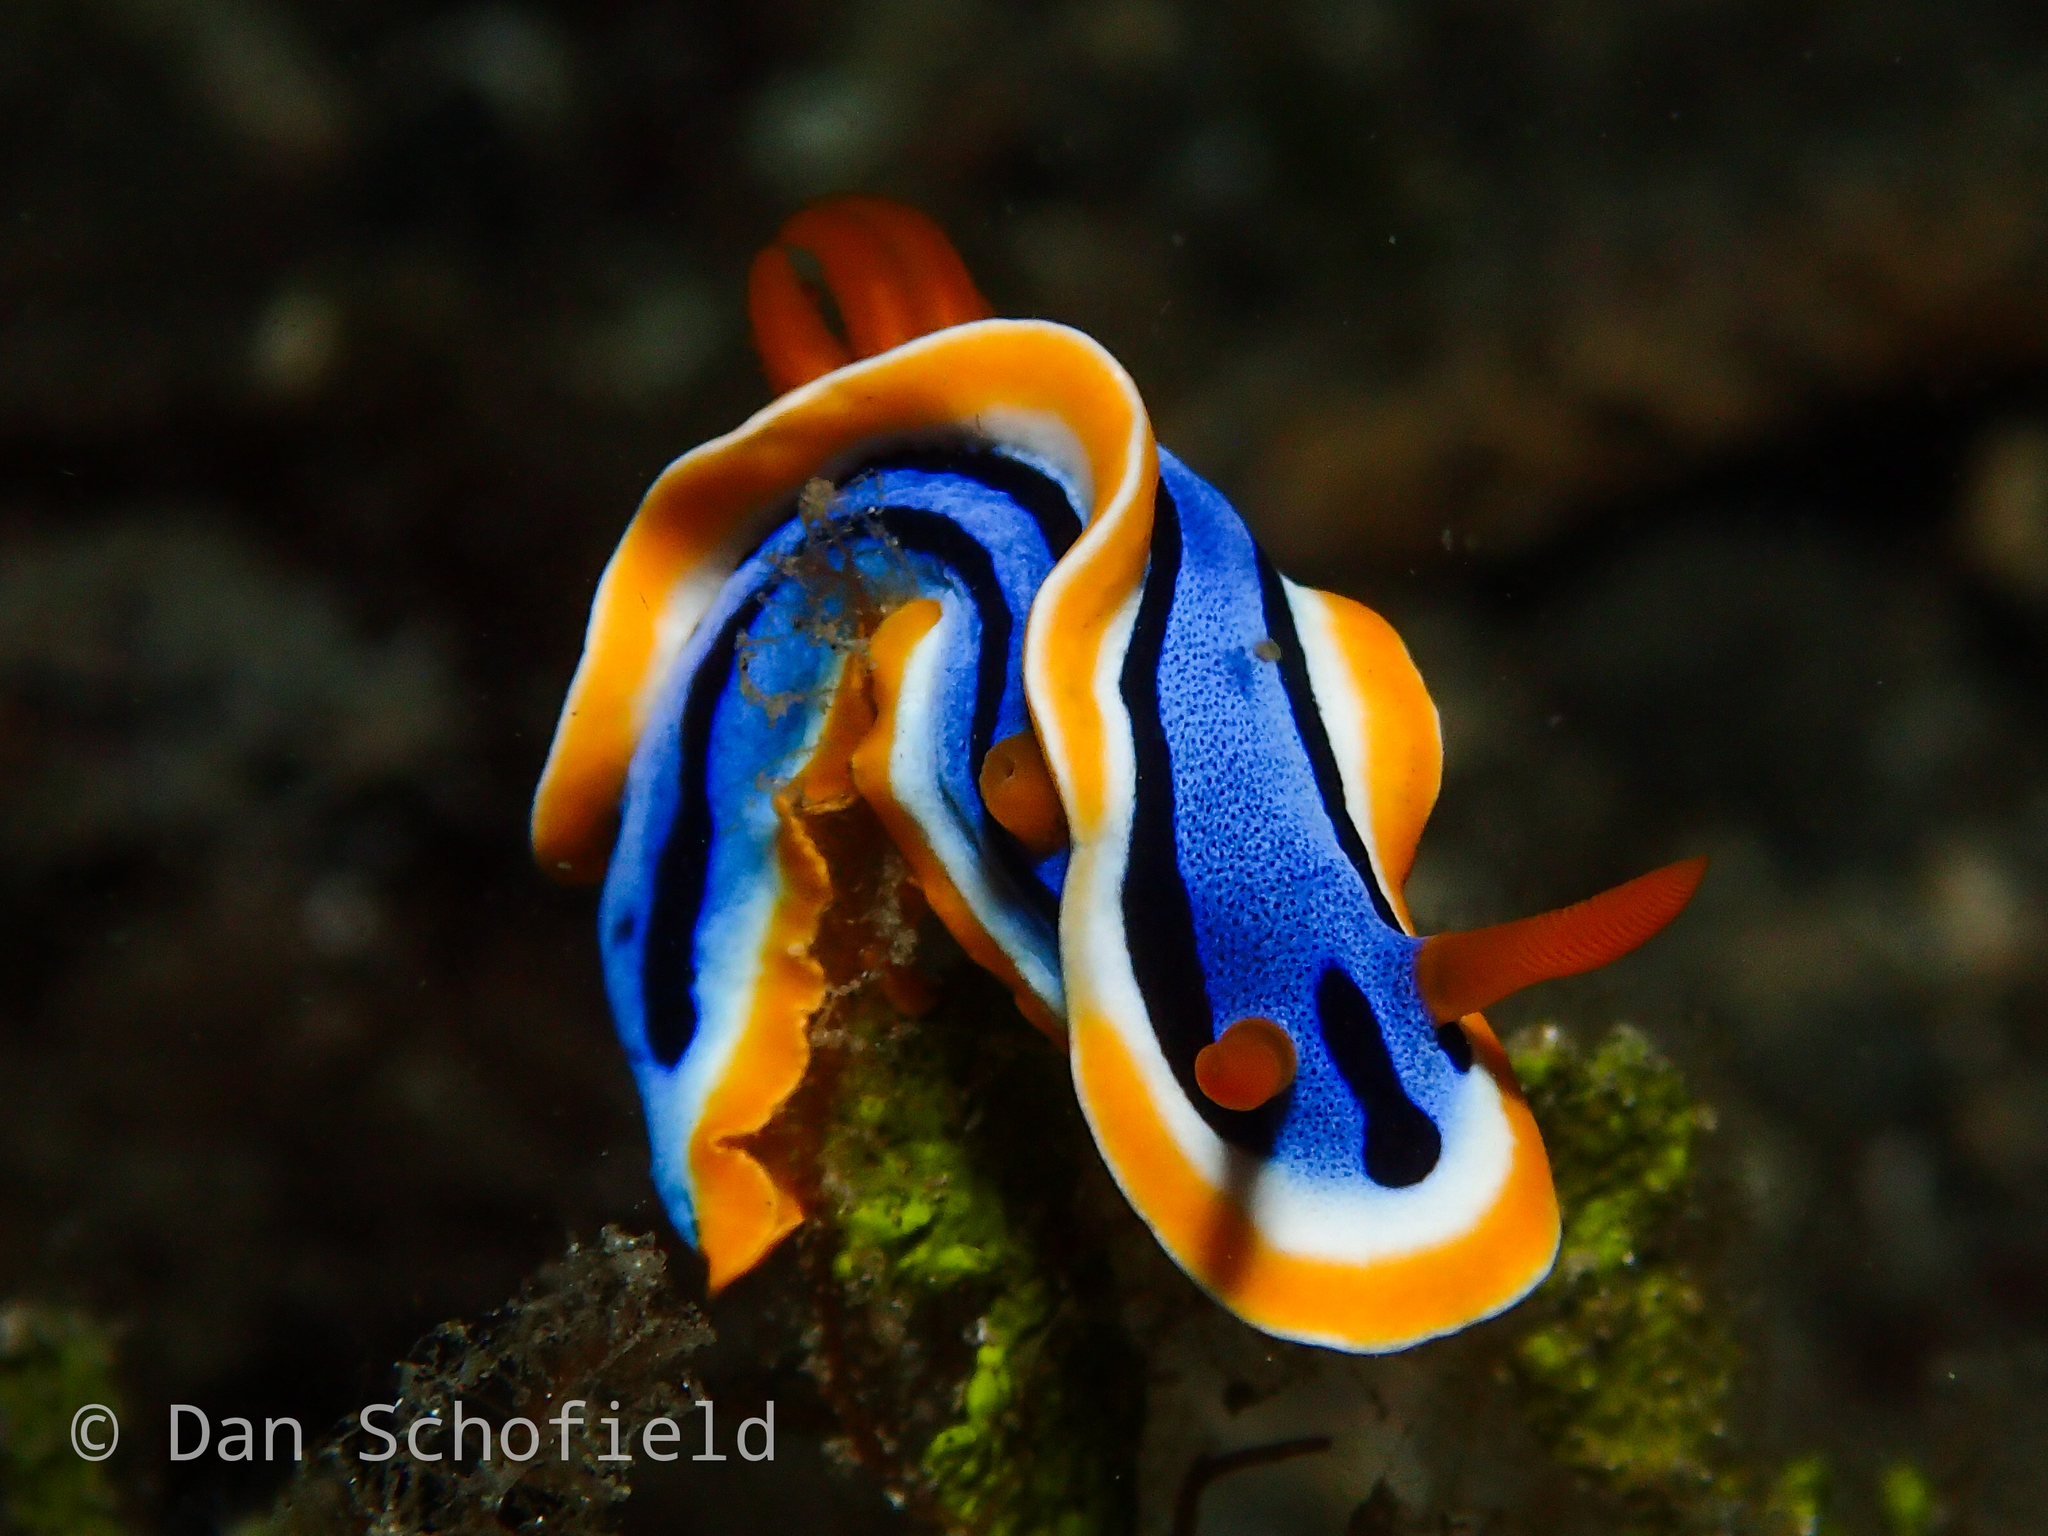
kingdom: Animalia
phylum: Mollusca
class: Gastropoda
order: Nudibranchia
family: Chromodorididae
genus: Chromodoris
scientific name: Chromodoris annae
